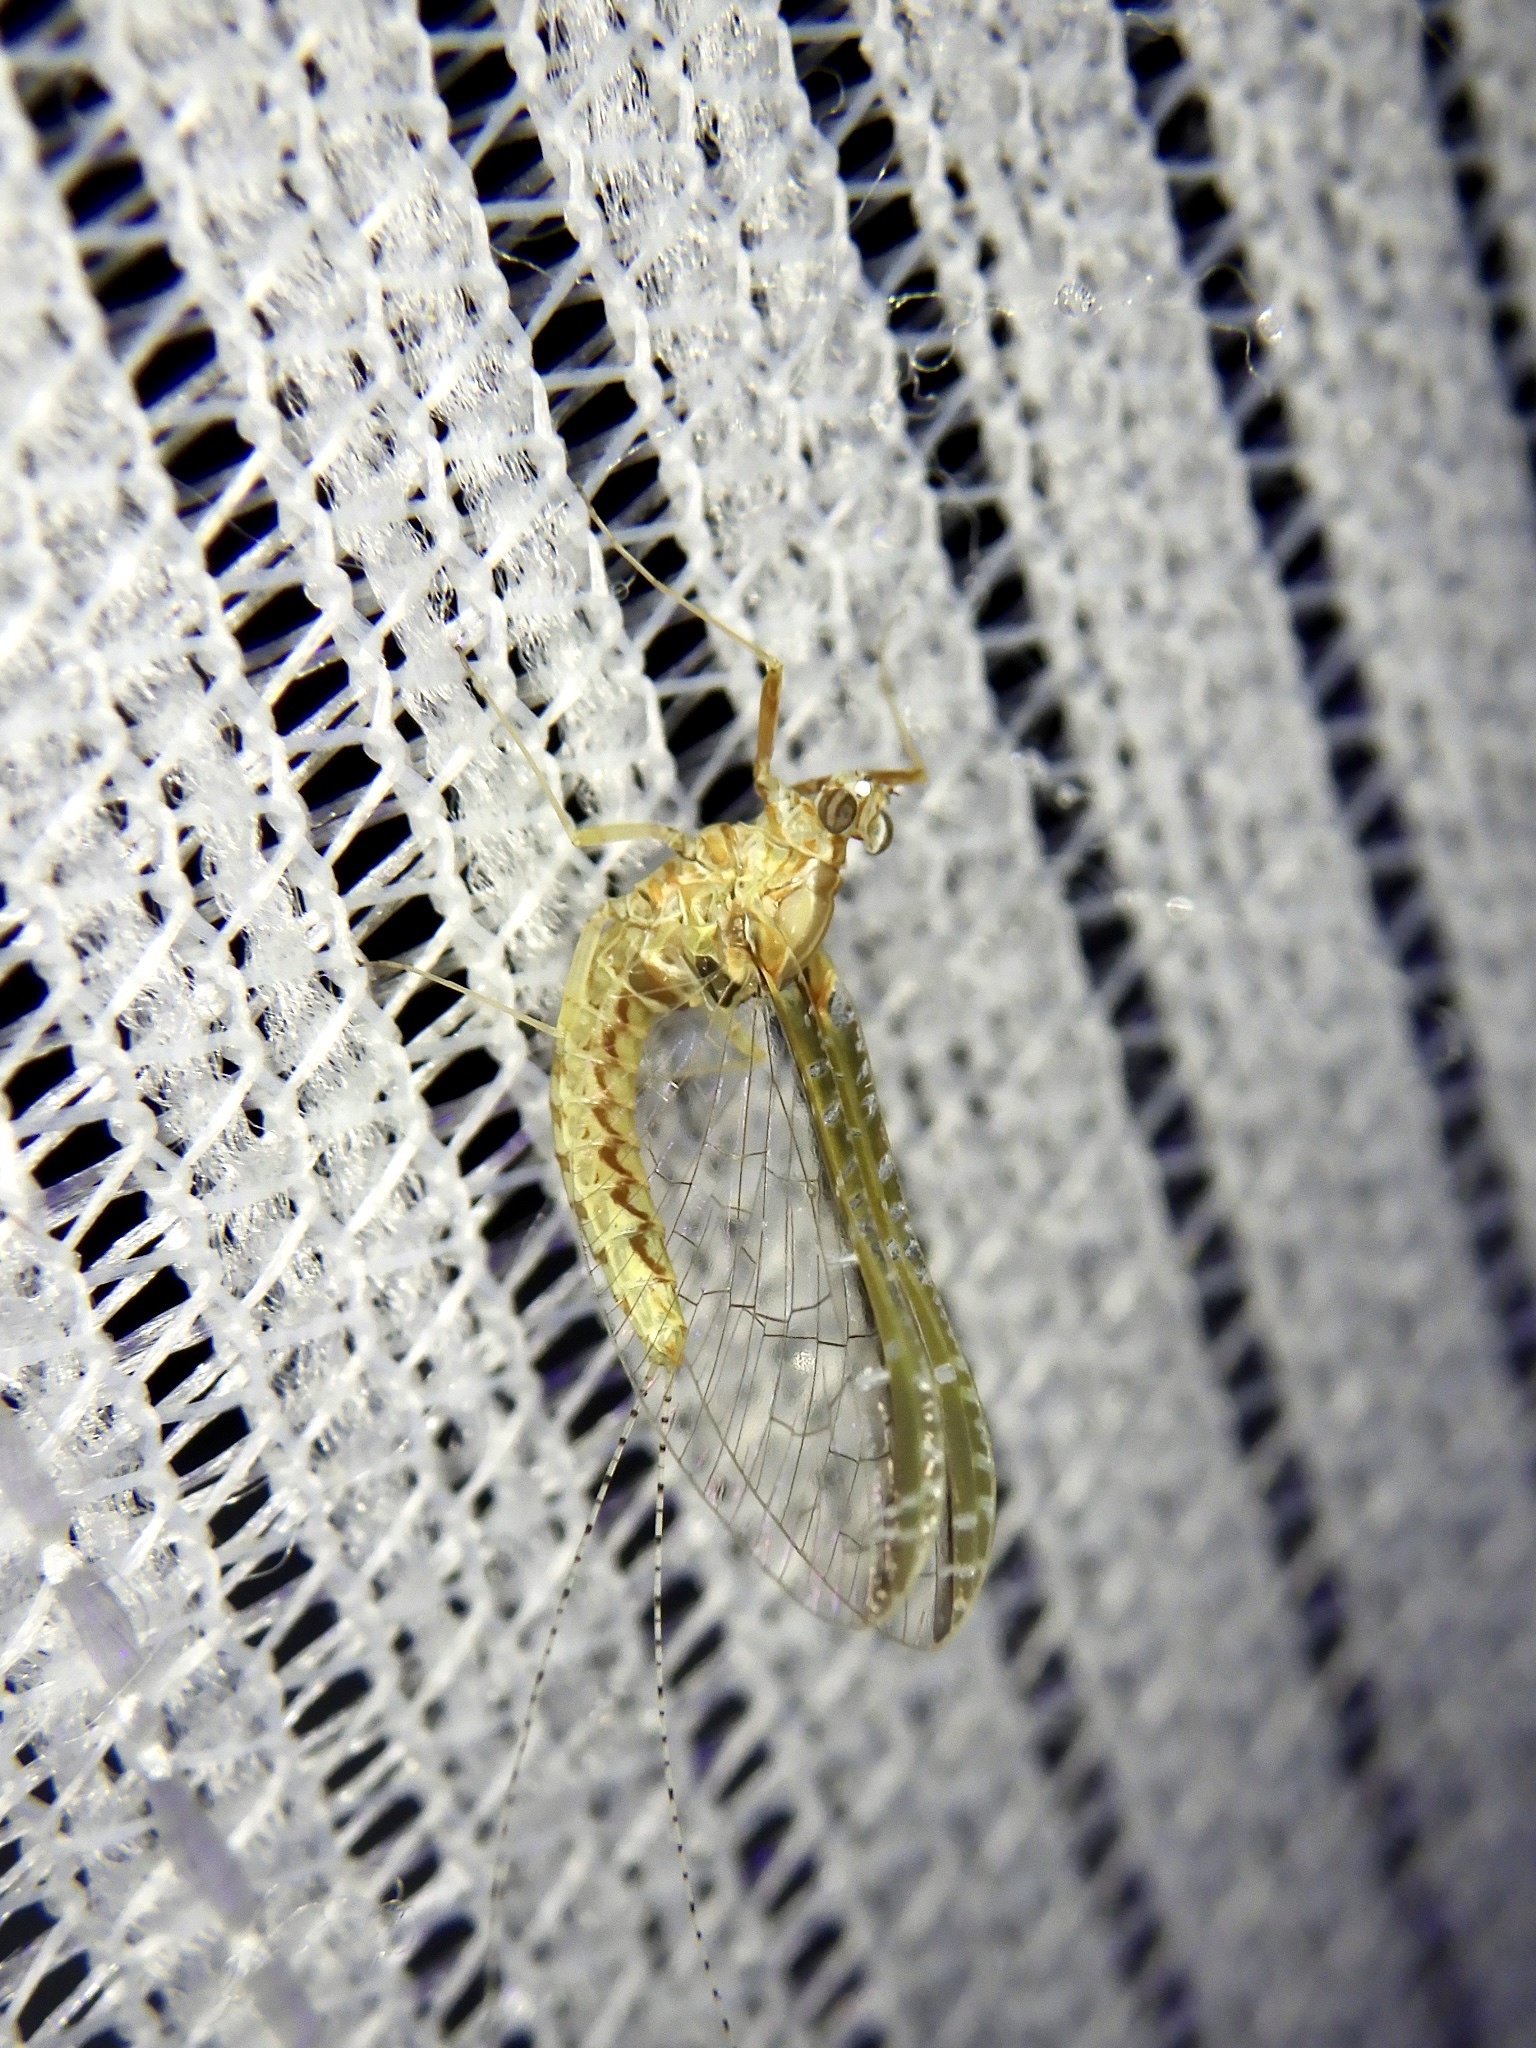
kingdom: Animalia
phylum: Arthropoda
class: Insecta
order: Ephemeroptera
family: Baetidae
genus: Cloeon
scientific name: Cloeon dipterum
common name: Pond olive
